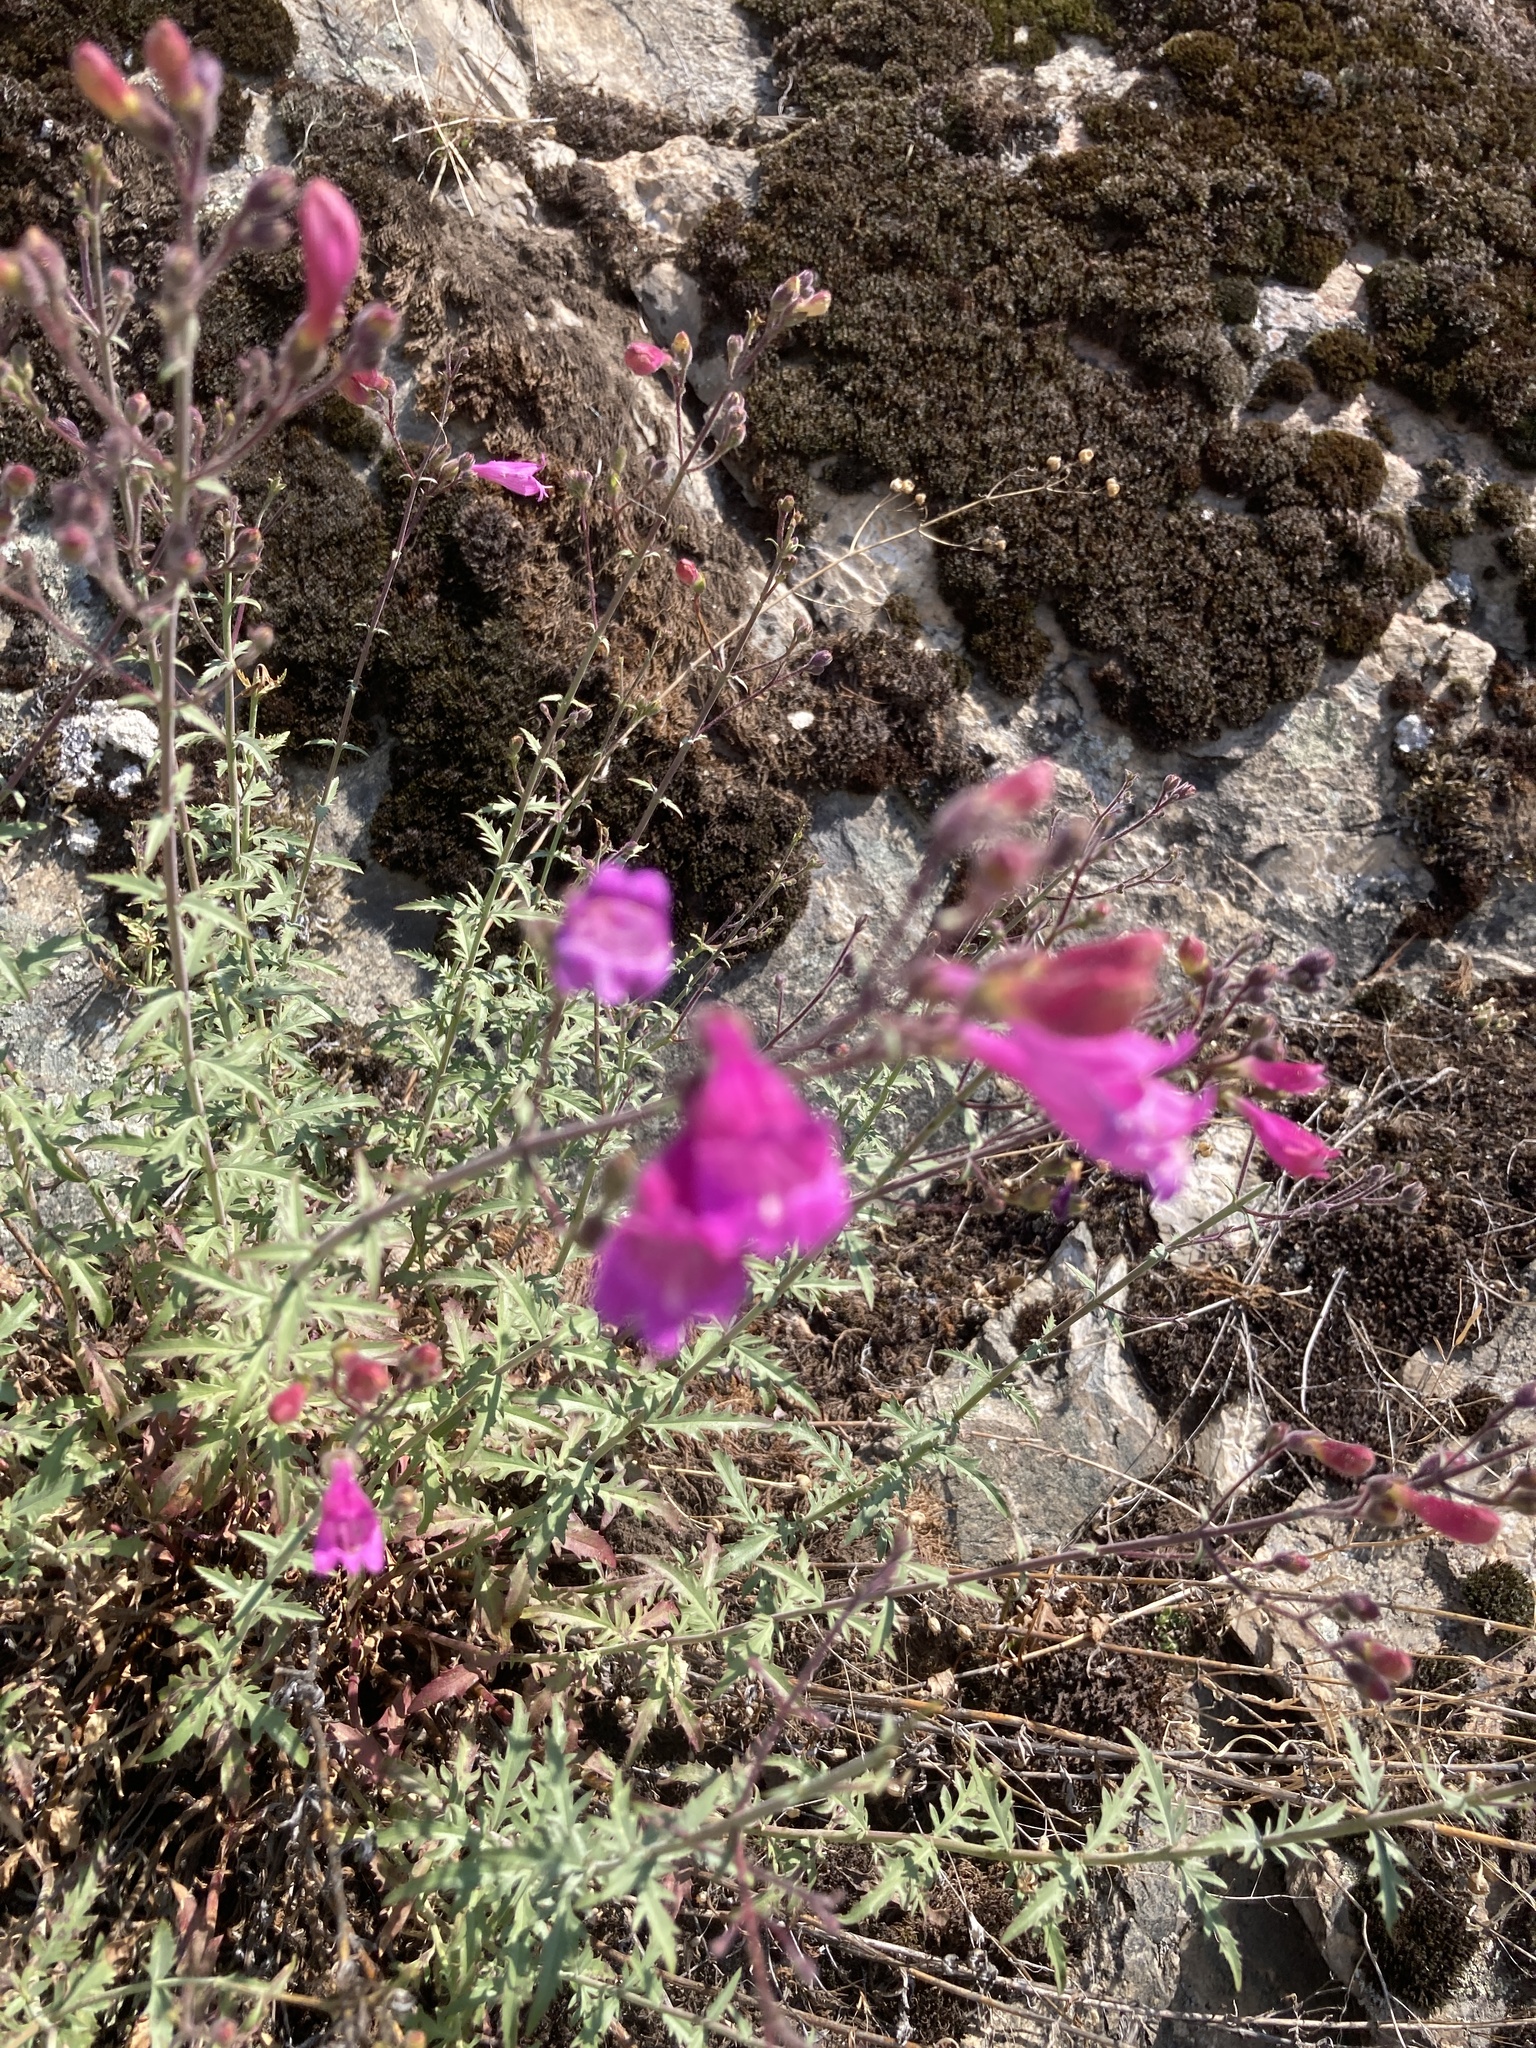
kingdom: Plantae
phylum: Tracheophyta
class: Magnoliopsida
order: Lamiales
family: Plantaginaceae
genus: Penstemon
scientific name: Penstemon richardsonii
